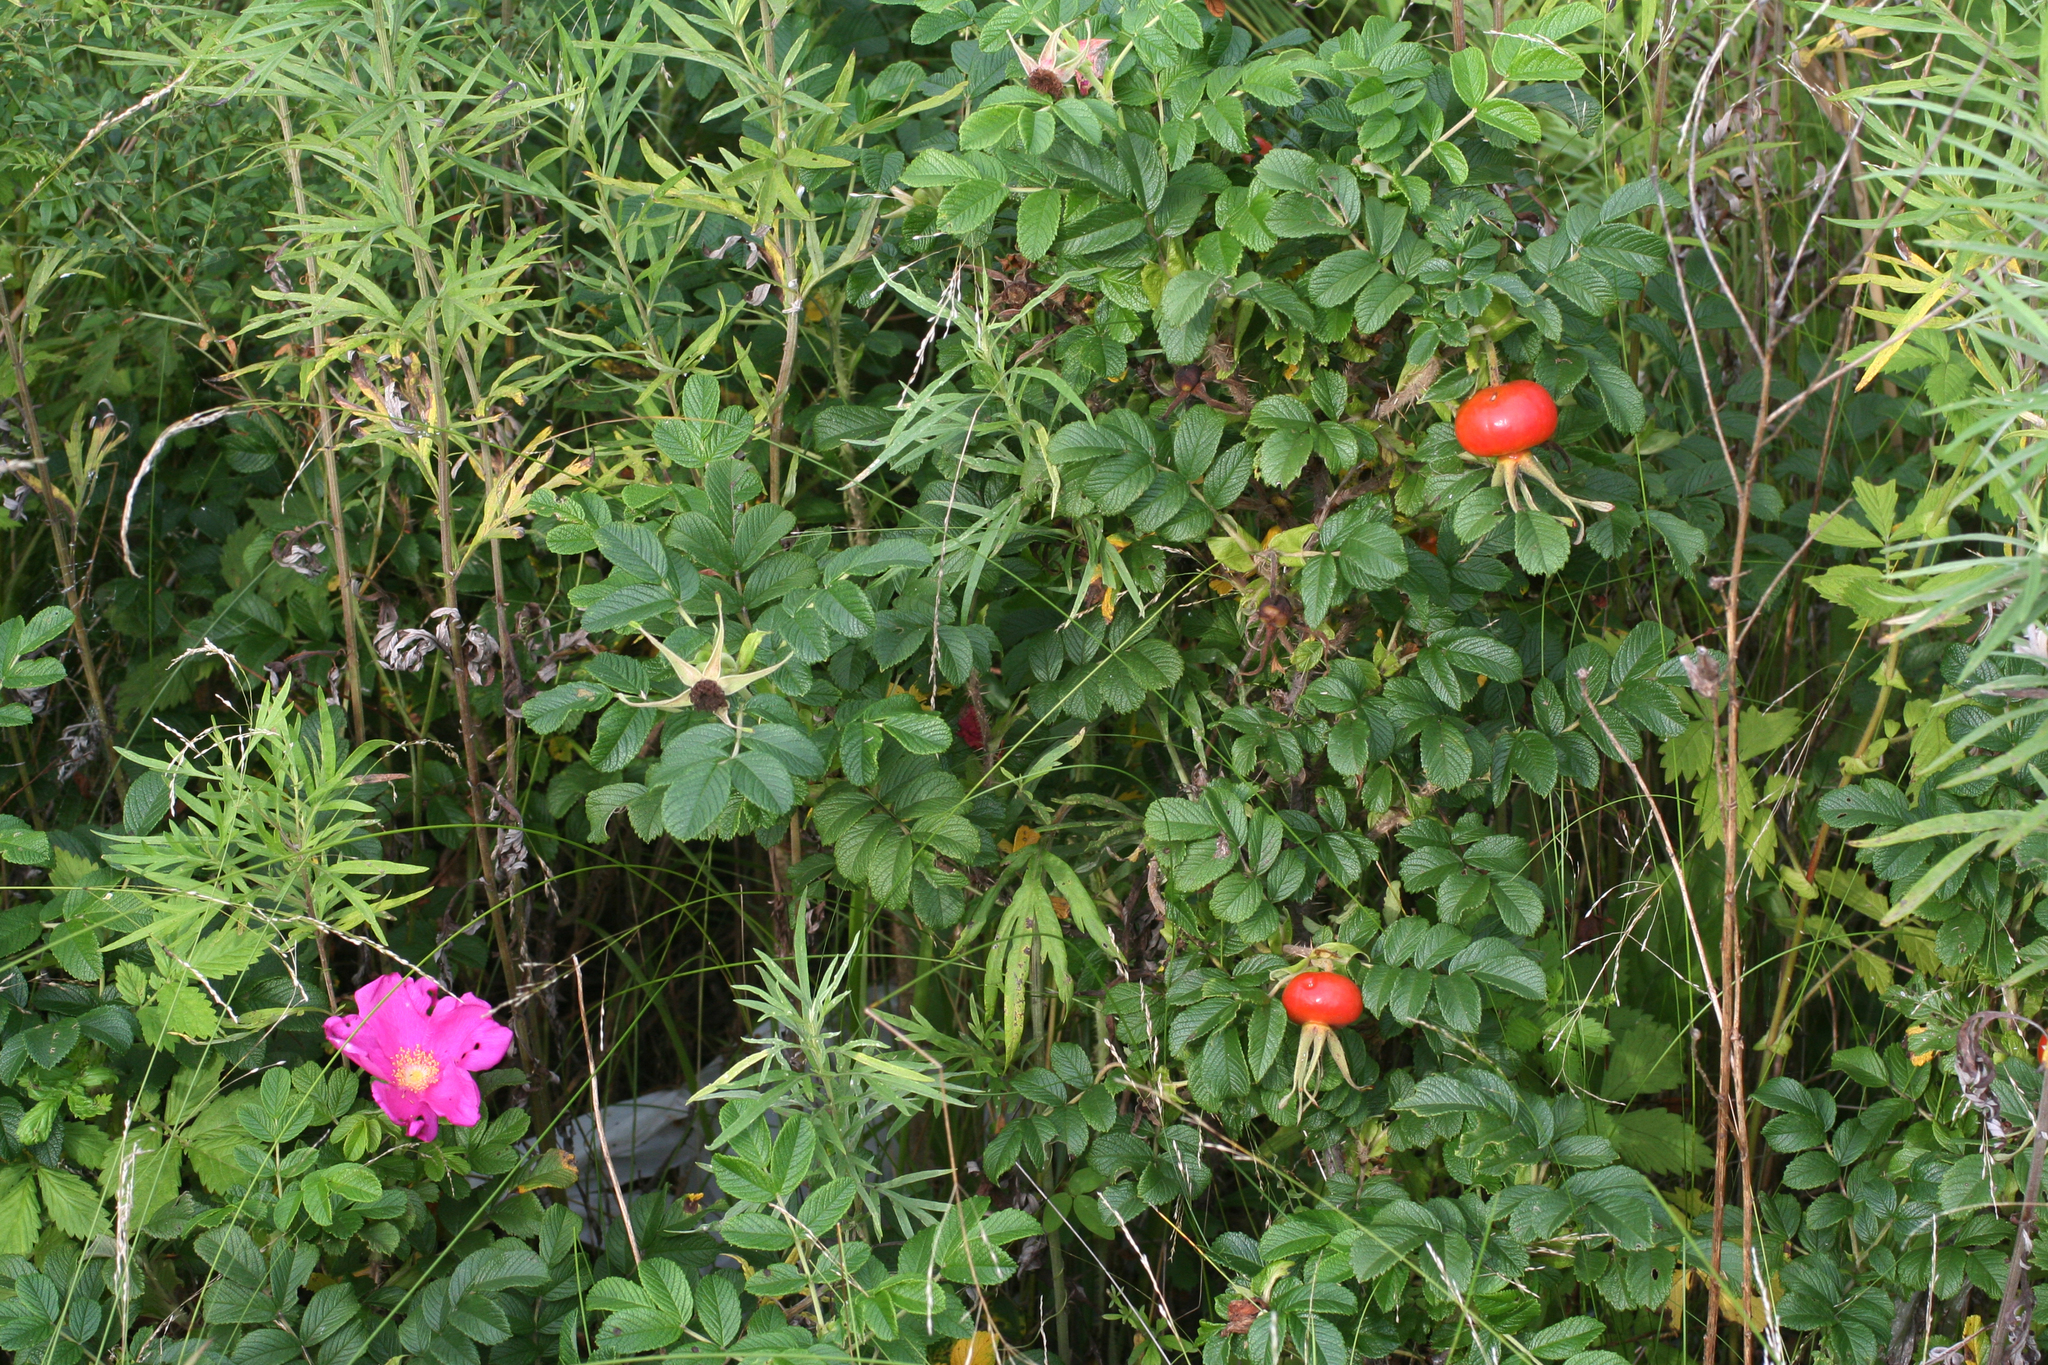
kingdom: Plantae
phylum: Tracheophyta
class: Magnoliopsida
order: Rosales
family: Rosaceae
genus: Rosa
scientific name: Rosa rugosa
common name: Japanese rose
